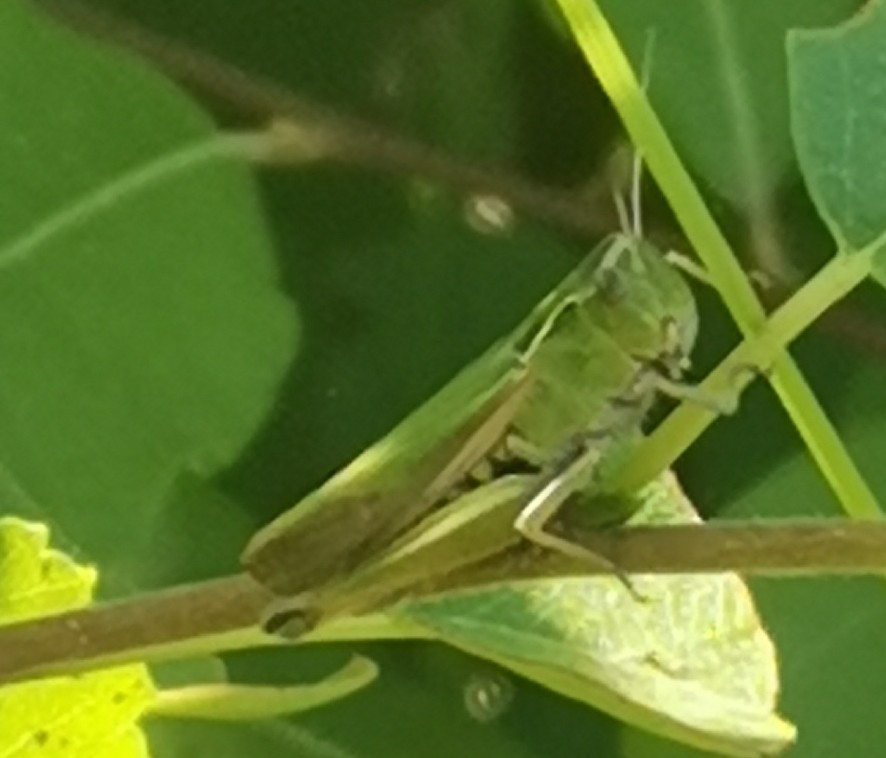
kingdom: Animalia
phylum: Arthropoda
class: Insecta
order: Orthoptera
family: Acrididae
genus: Omocestus
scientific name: Omocestus viridulus
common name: Common green grasshopper
